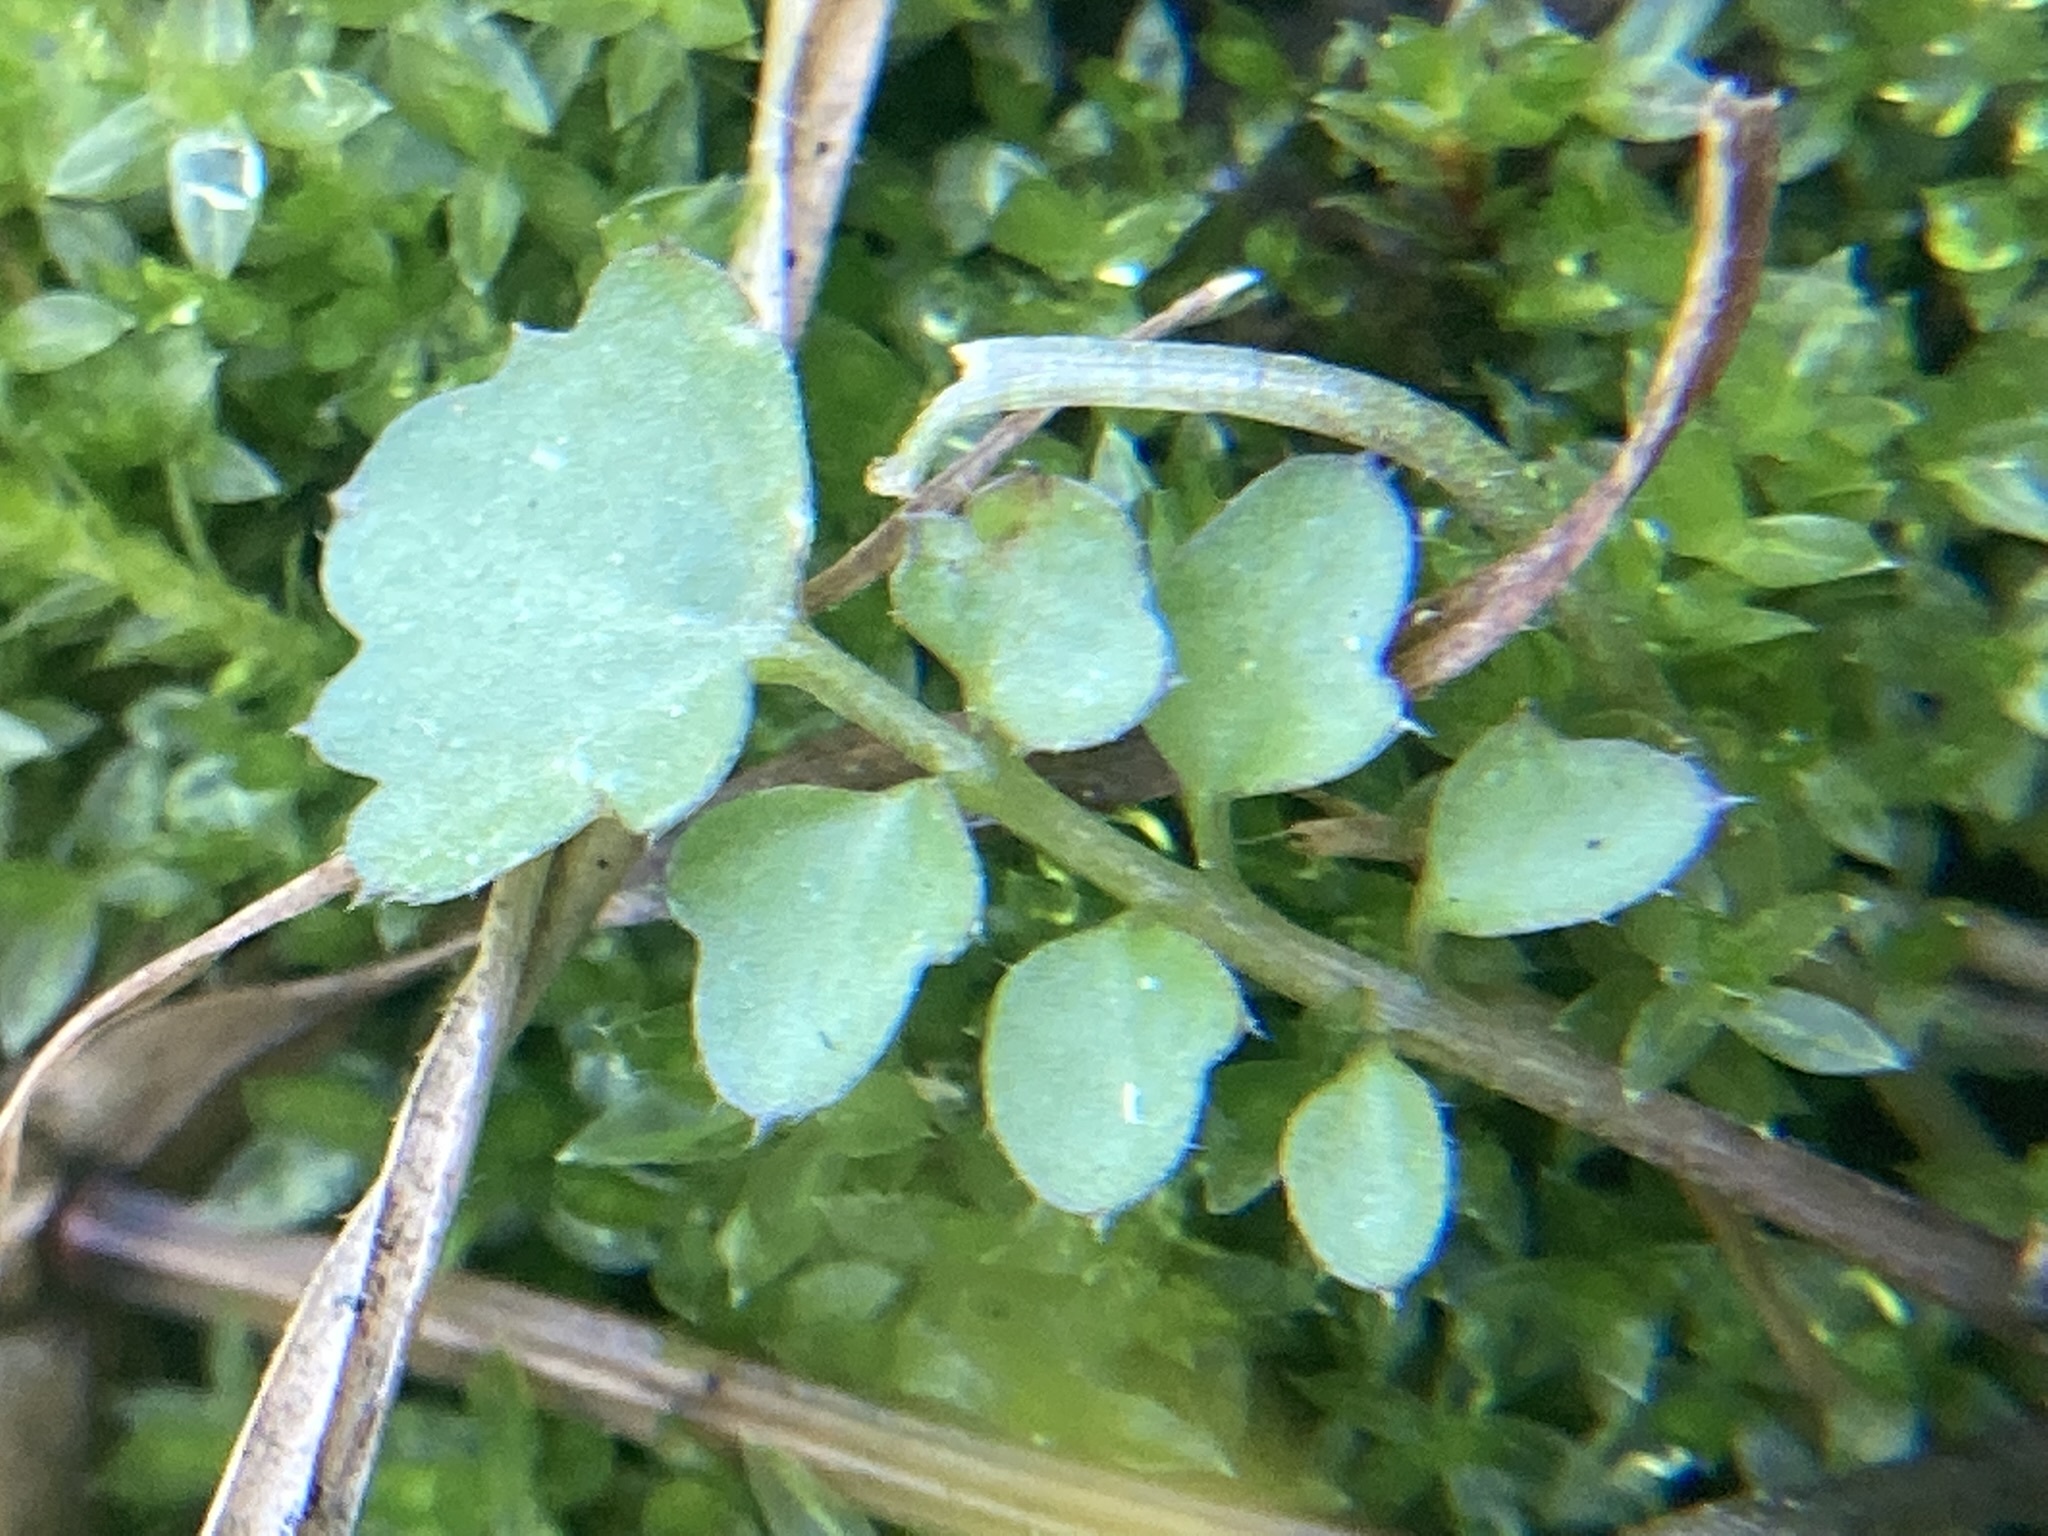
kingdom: Plantae
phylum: Tracheophyta
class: Magnoliopsida
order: Brassicales
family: Brassicaceae
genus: Cardamine
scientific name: Cardamine occulta
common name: Asian wavy bittercress
